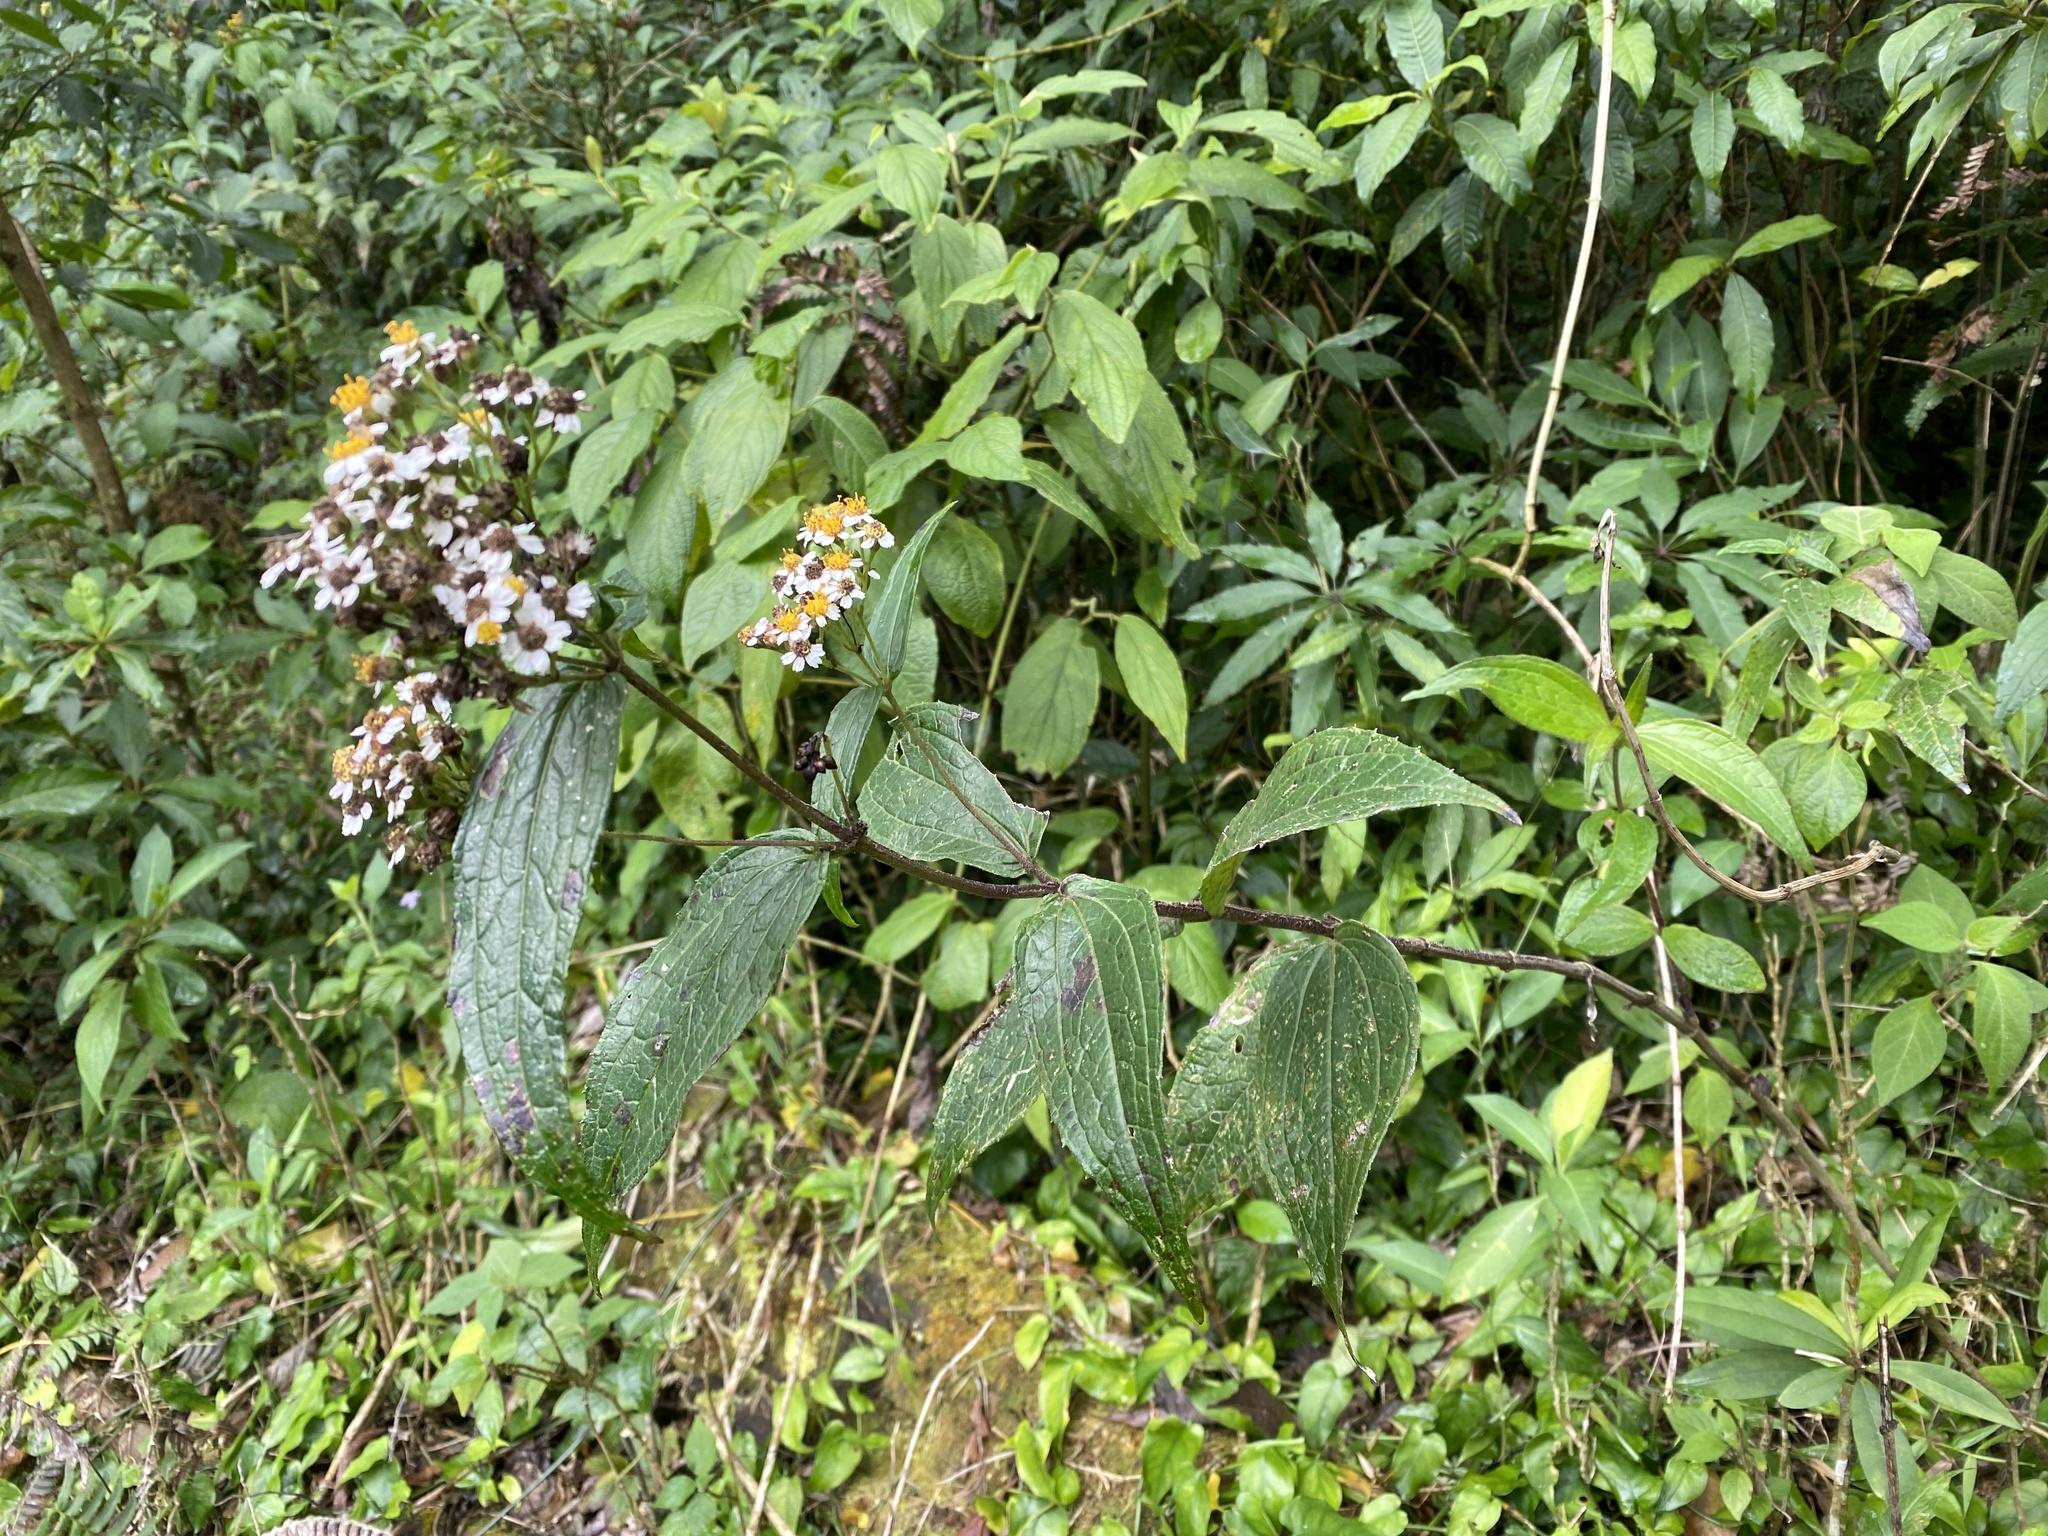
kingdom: Plantae
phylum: Tracheophyta
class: Magnoliopsida
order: Asterales
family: Asteraceae
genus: Alloispermum
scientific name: Alloispermum integrifolium
